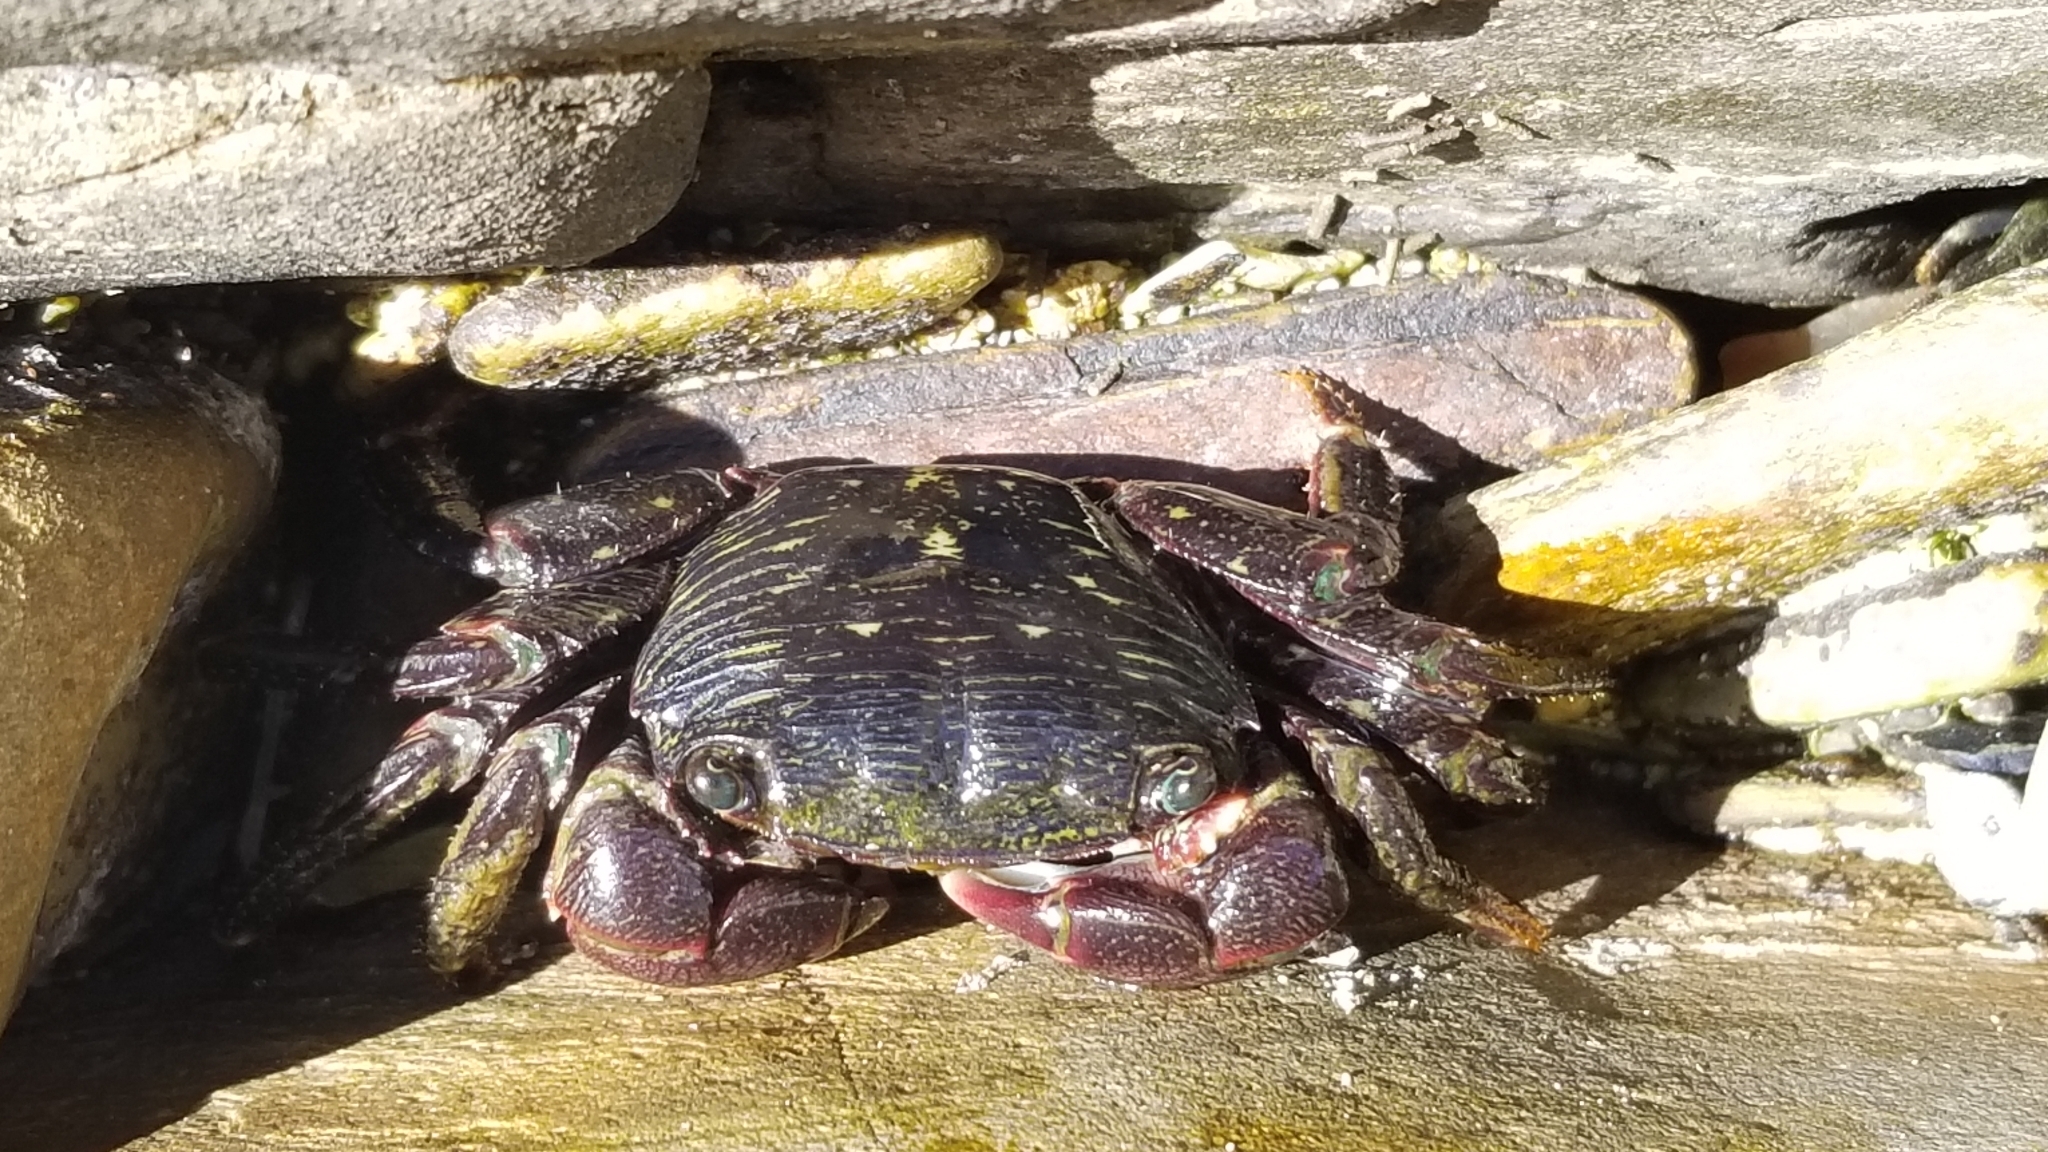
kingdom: Animalia
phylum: Arthropoda
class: Malacostraca
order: Decapoda
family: Grapsidae
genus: Pachygrapsus
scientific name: Pachygrapsus crassipes
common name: Striped shore crab
